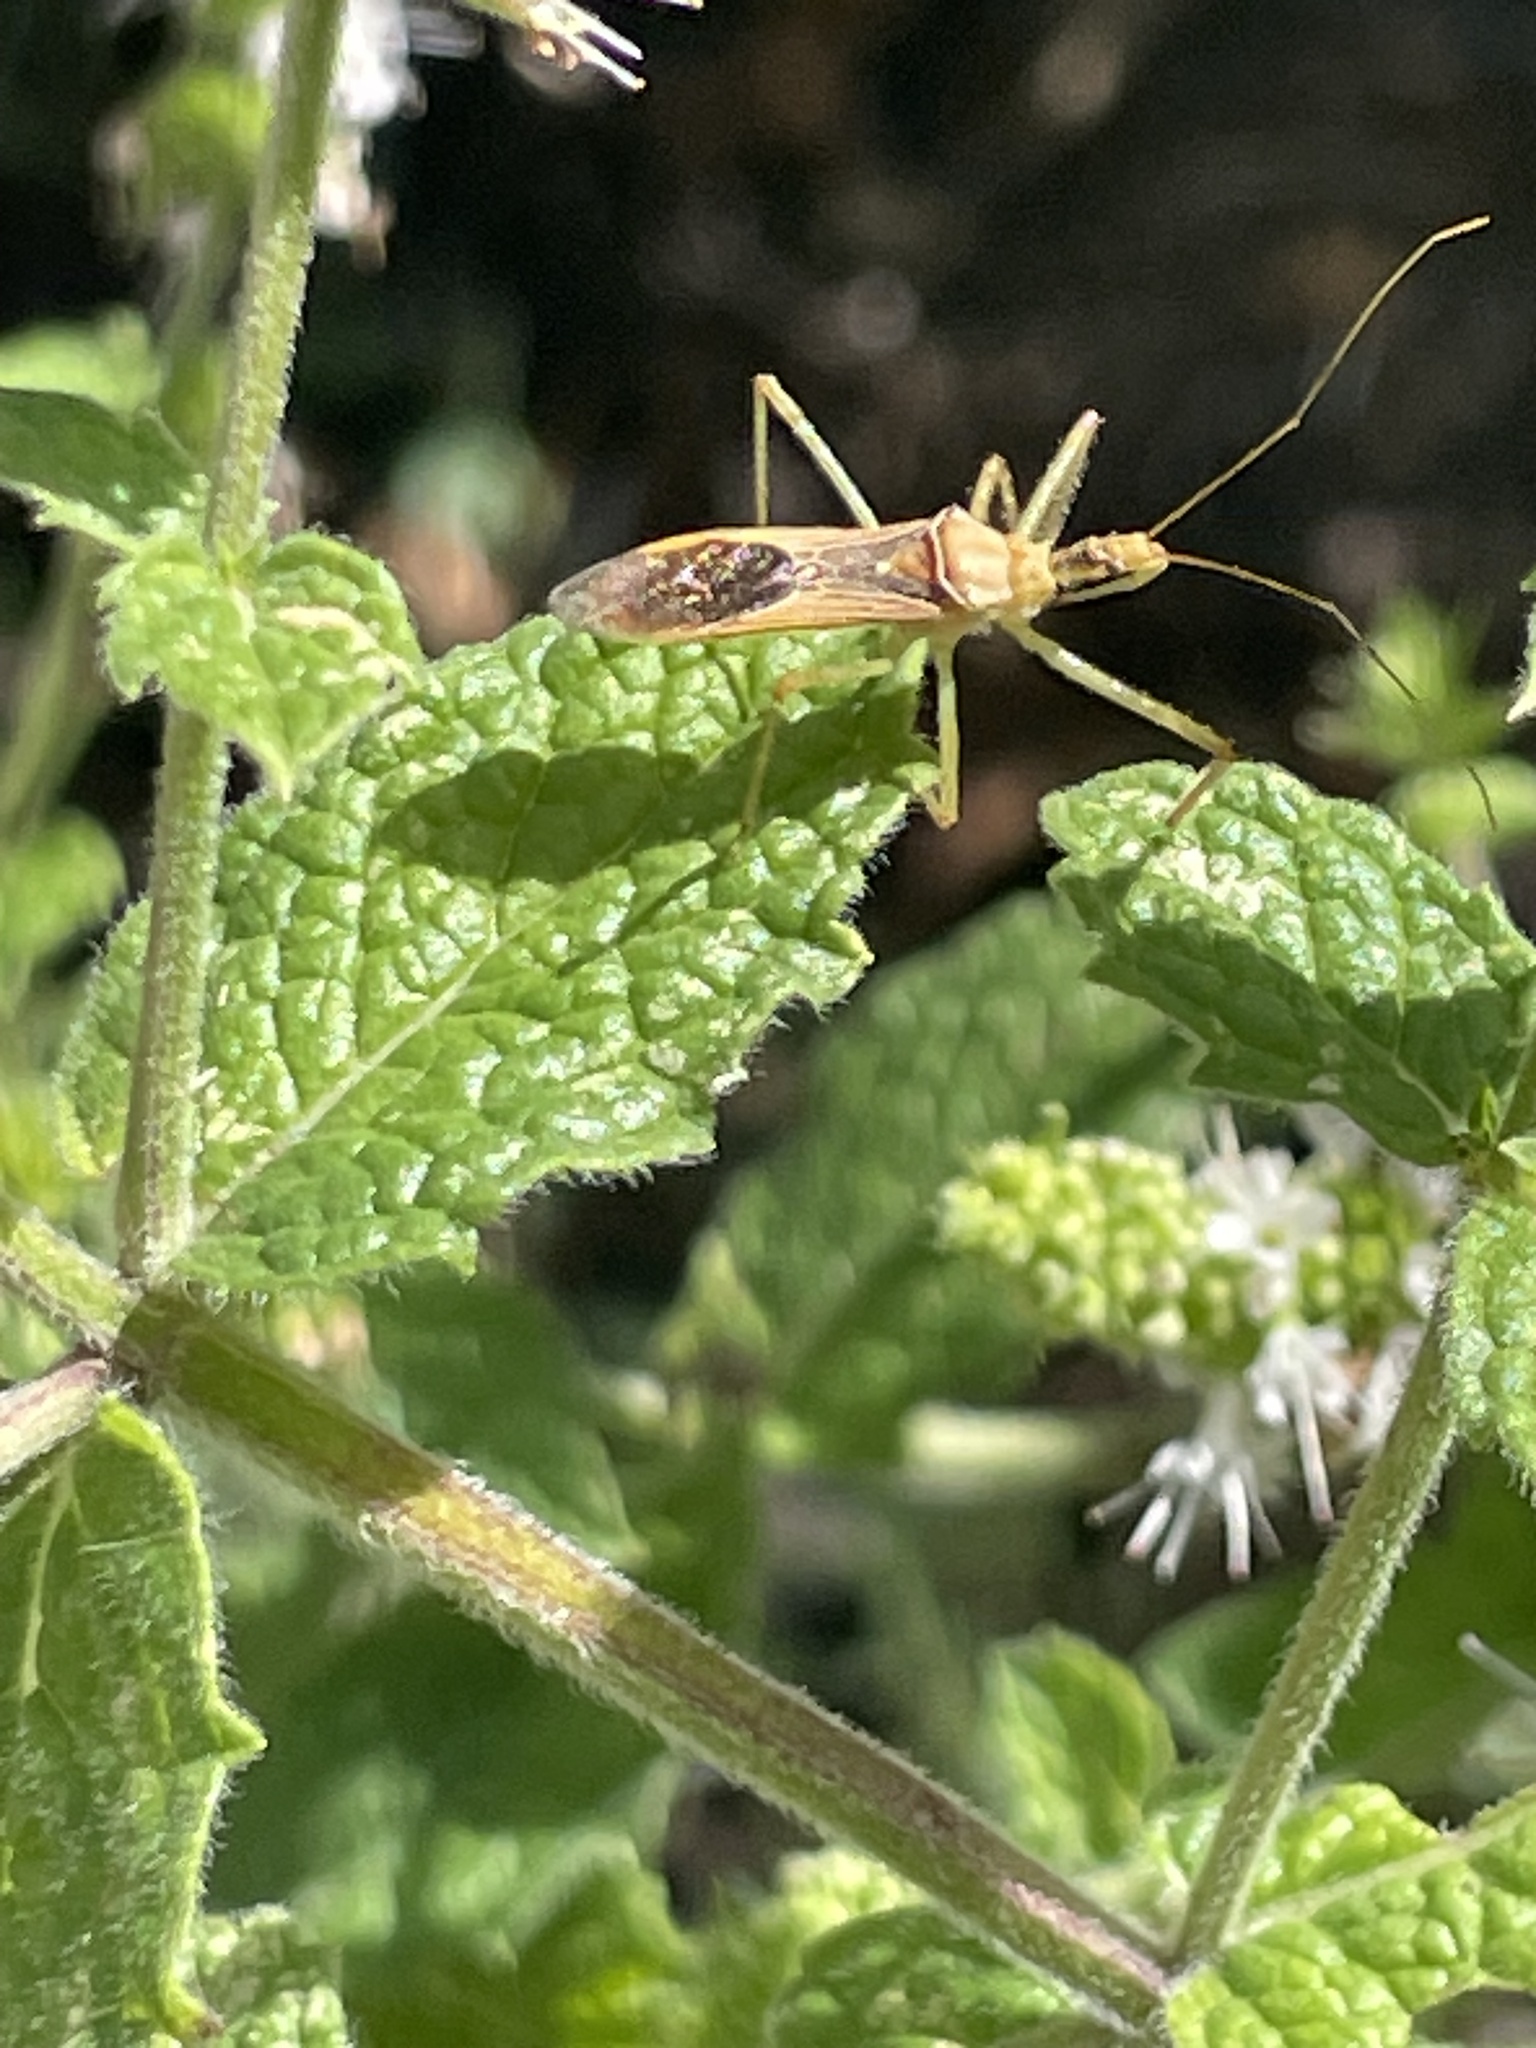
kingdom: Animalia
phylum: Arthropoda
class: Insecta
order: Hemiptera
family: Reduviidae
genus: Zelus
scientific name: Zelus renardii
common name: Assassin bug
